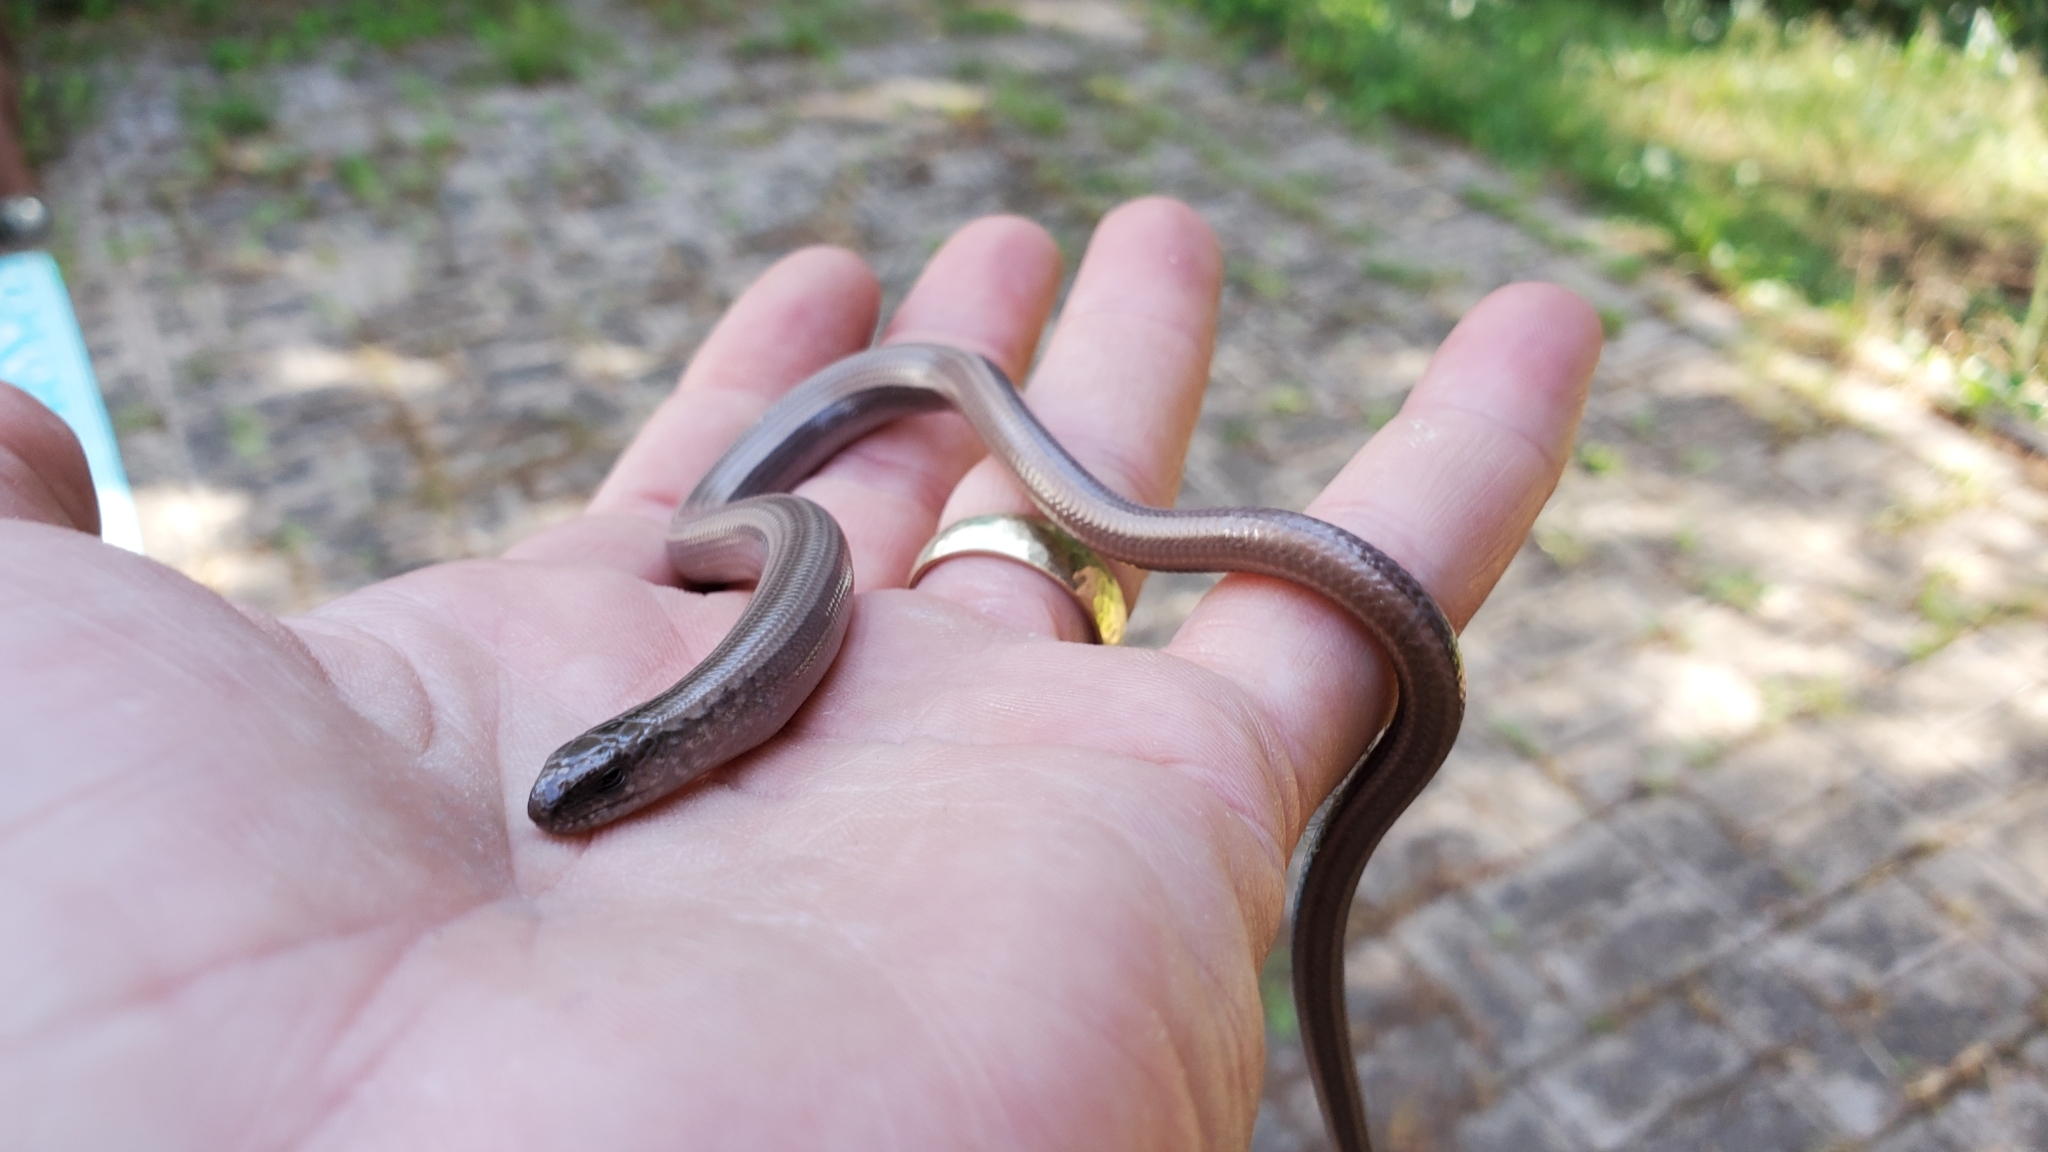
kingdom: Animalia
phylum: Chordata
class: Squamata
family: Anguidae
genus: Anguis
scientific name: Anguis fragilis
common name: Slow worm
